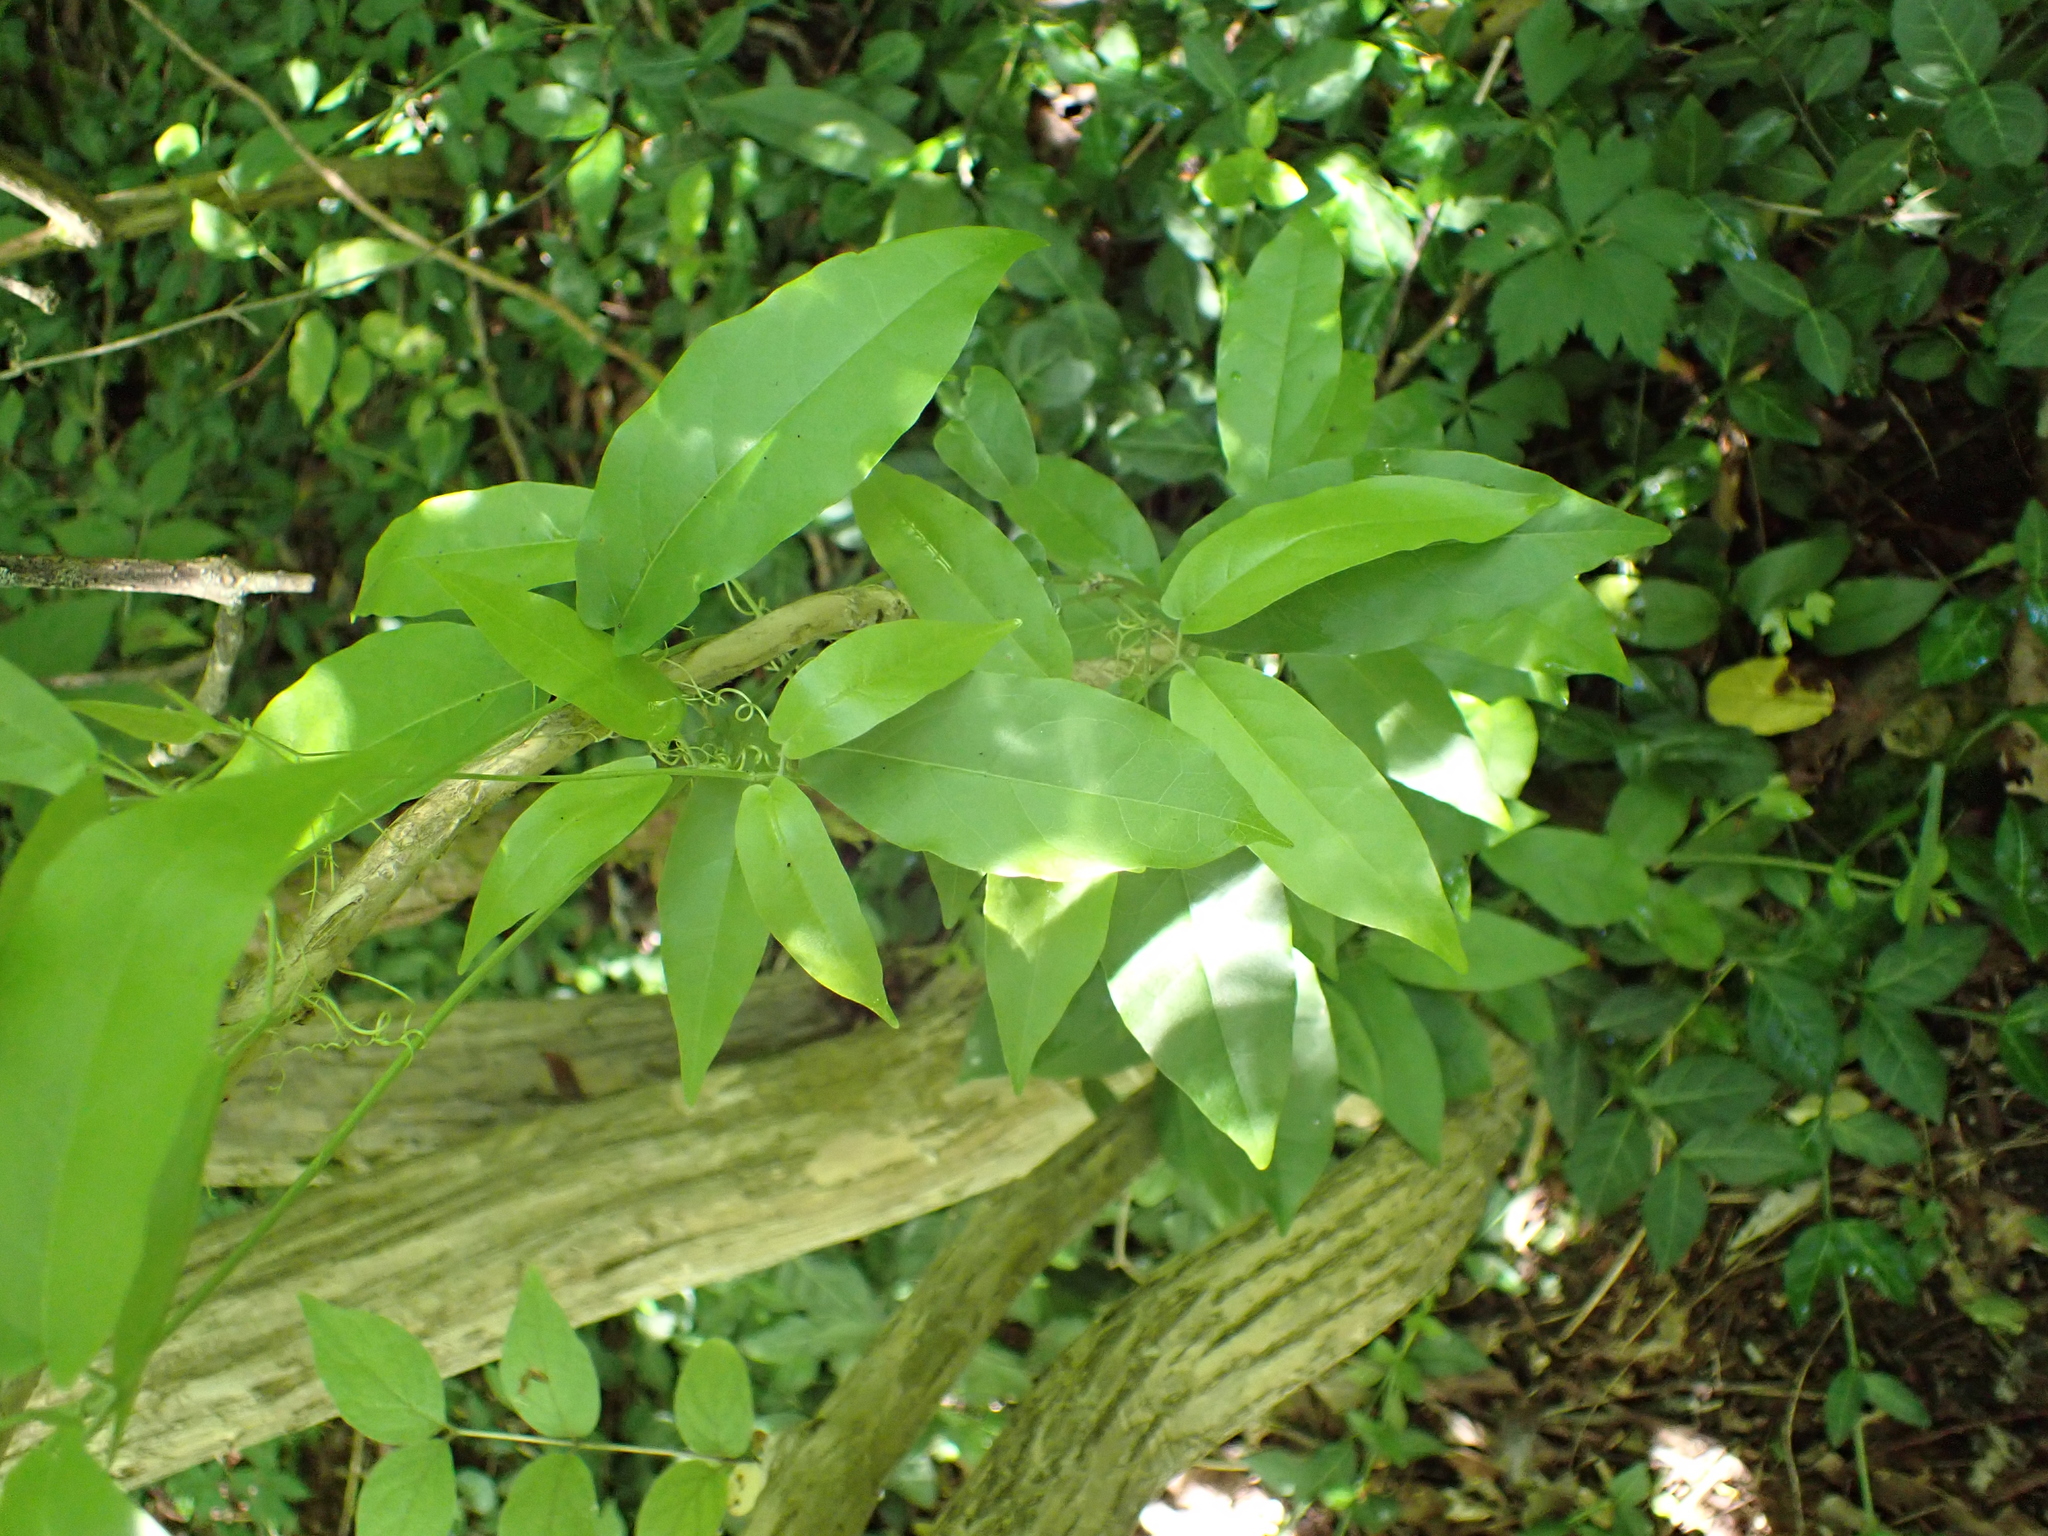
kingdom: Plantae
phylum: Tracheophyta
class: Magnoliopsida
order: Lamiales
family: Bignoniaceae
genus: Bignonia
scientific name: Bignonia capreolata
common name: Crossvine
